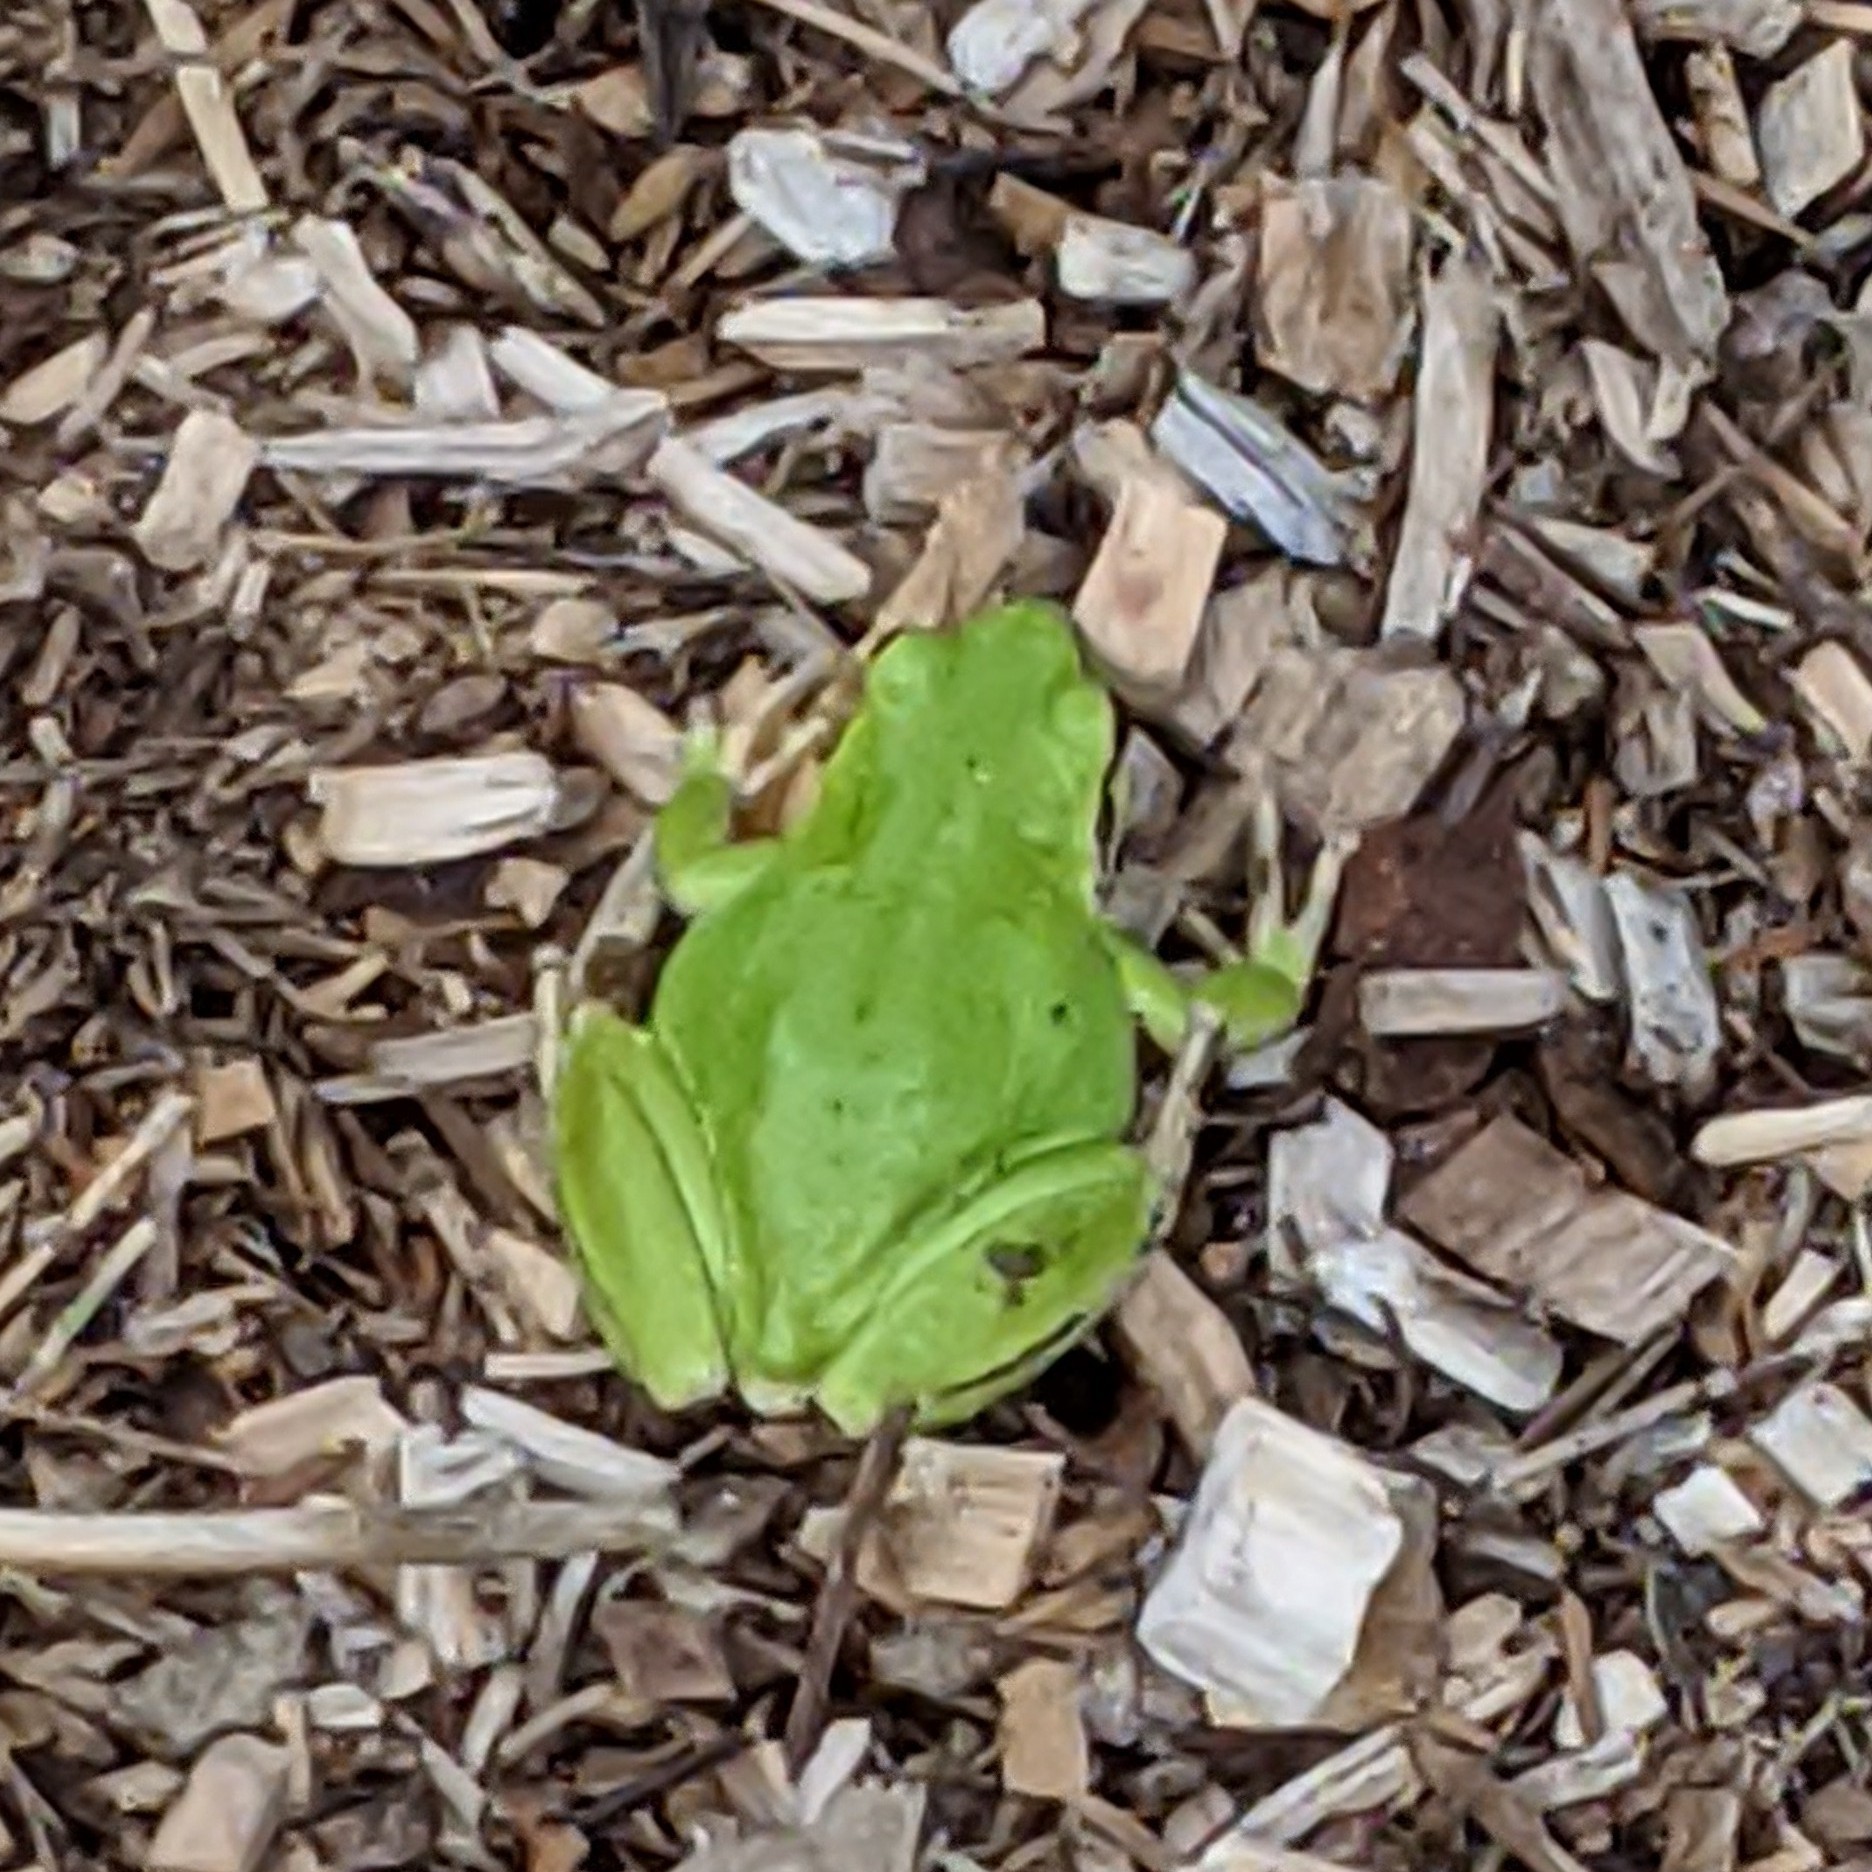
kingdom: Animalia
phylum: Chordata
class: Amphibia
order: Anura
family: Hylidae
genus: Pseudacris
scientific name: Pseudacris regilla
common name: Pacific chorus frog
